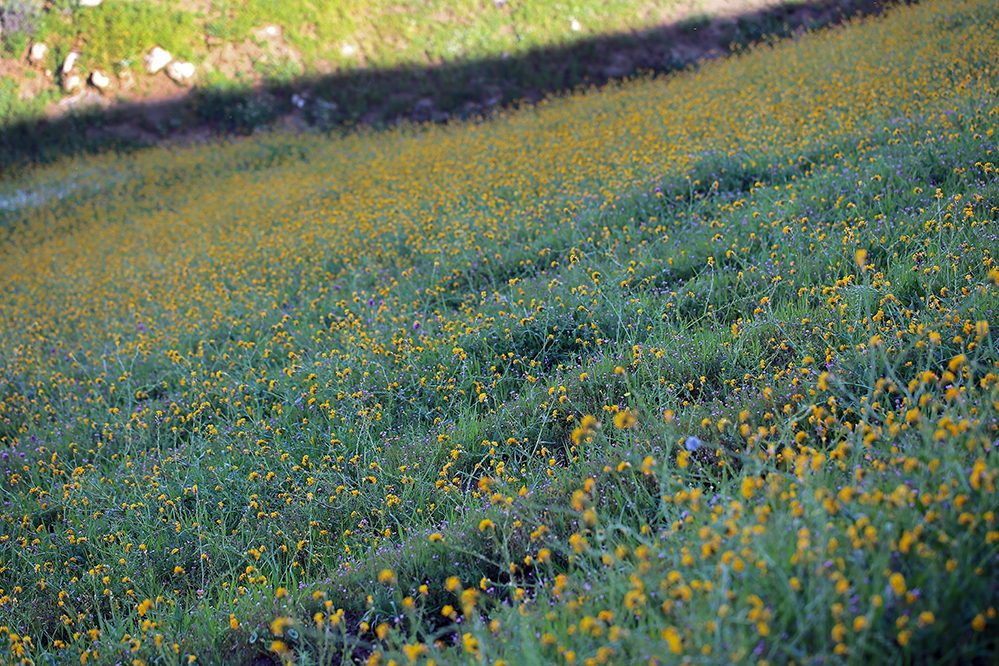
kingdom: Plantae
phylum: Tracheophyta
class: Magnoliopsida
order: Boraginales
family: Boraginaceae
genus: Amsinckia
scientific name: Amsinckia eastwoodiae
